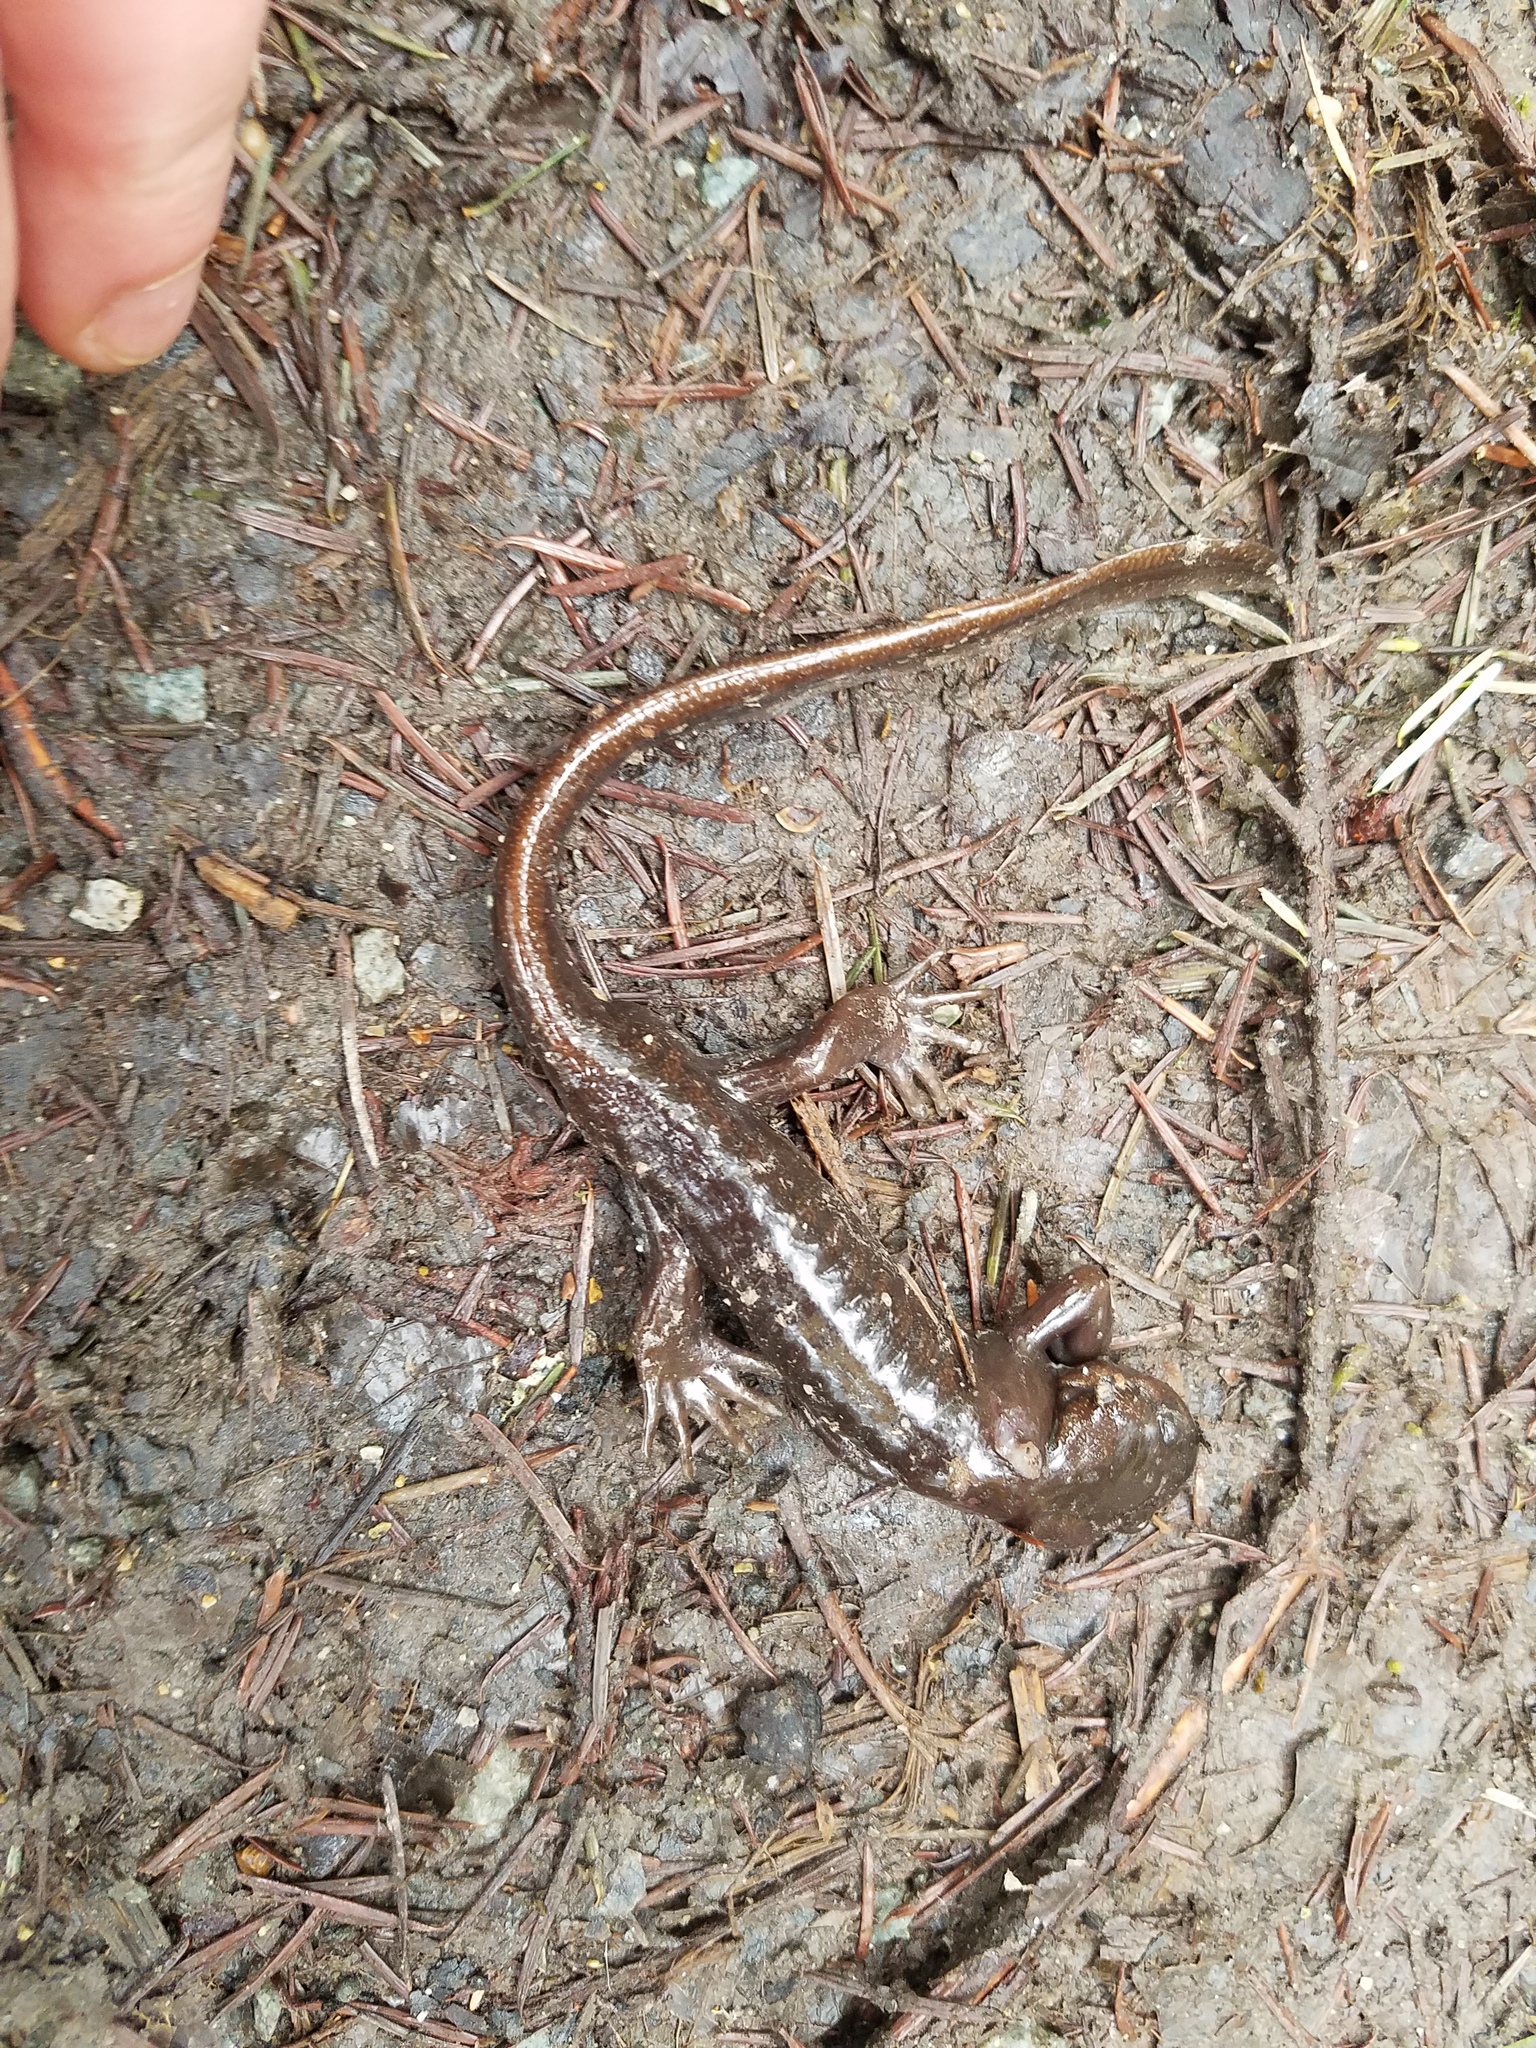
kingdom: Animalia
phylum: Chordata
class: Amphibia
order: Caudata
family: Ambystomatidae
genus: Ambystoma
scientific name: Ambystoma gracile
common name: Northwestern salamander
